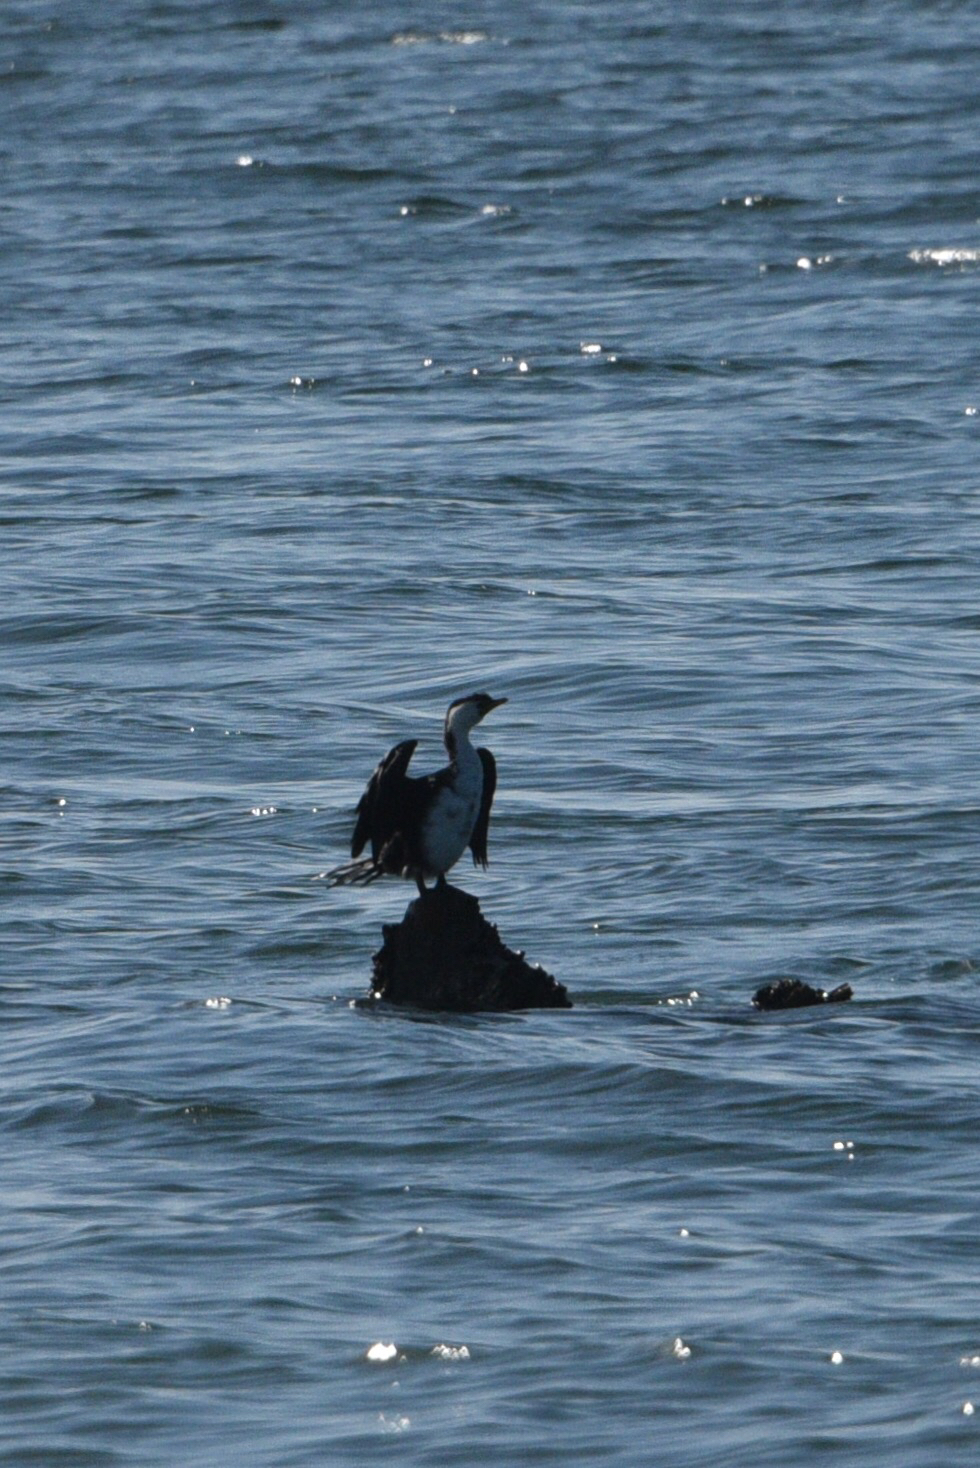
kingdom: Animalia
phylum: Chordata
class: Aves
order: Suliformes
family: Phalacrocoracidae
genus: Microcarbo
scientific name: Microcarbo melanoleucos
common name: Little pied cormorant
